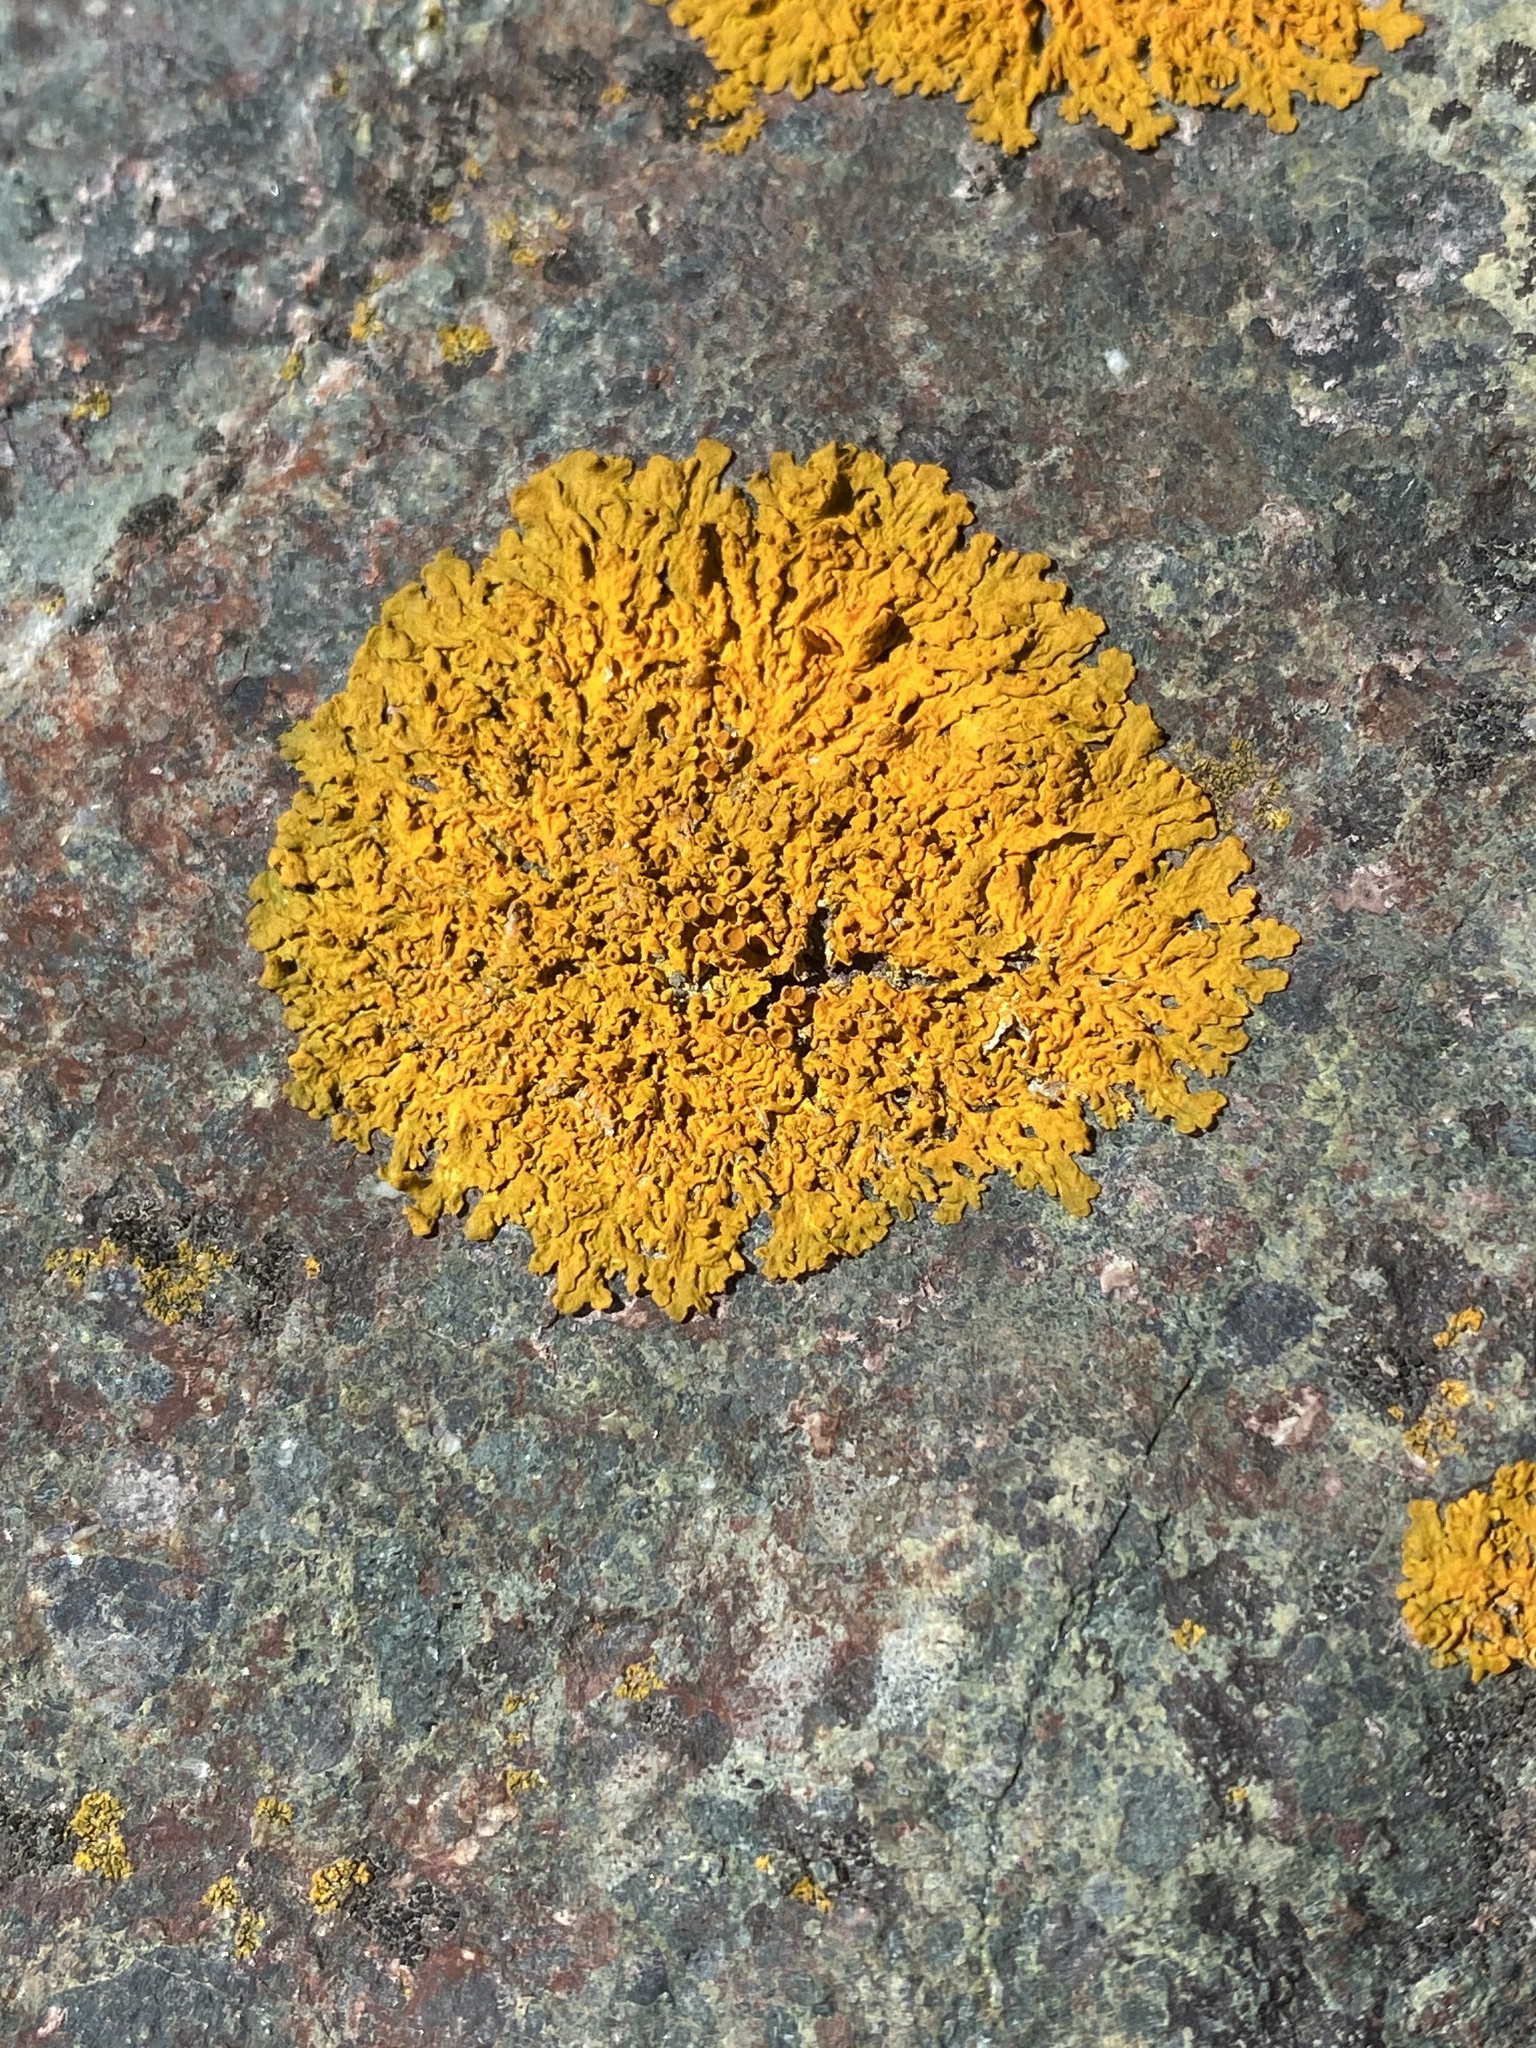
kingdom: Fungi
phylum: Ascomycota
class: Lecanoromycetes
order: Teloschistales
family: Teloschistaceae
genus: Xanthoria
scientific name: Xanthoria parietina
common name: Common orange lichen
